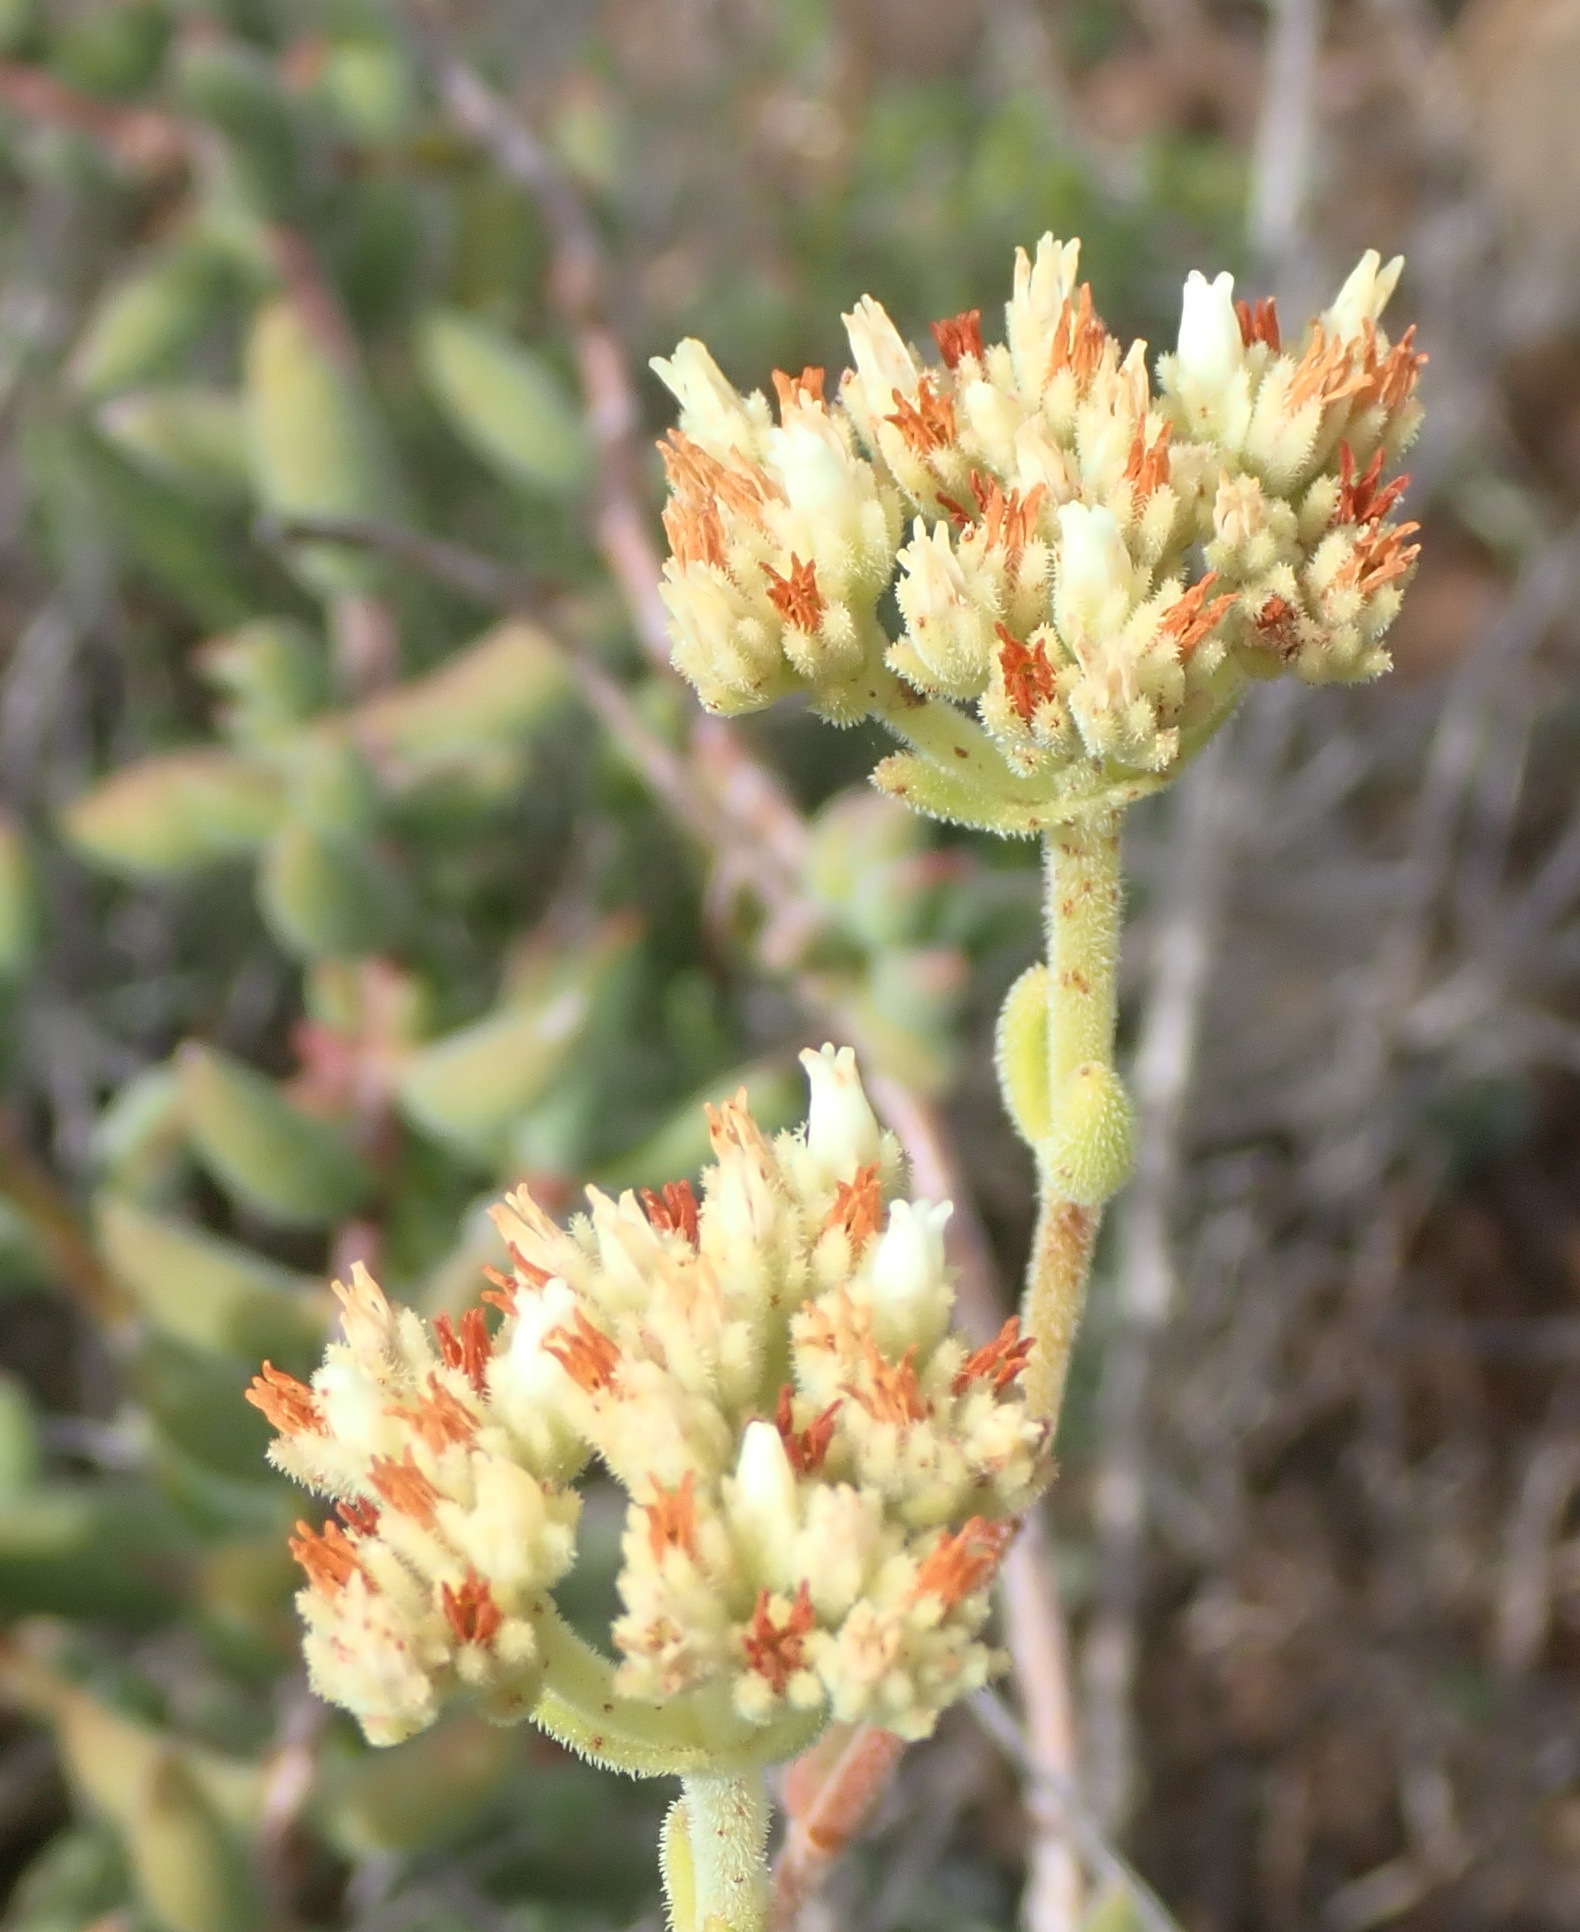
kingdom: Plantae
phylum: Tracheophyta
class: Magnoliopsida
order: Saxifragales
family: Crassulaceae
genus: Crassula
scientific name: Crassula mesembryanthoides
